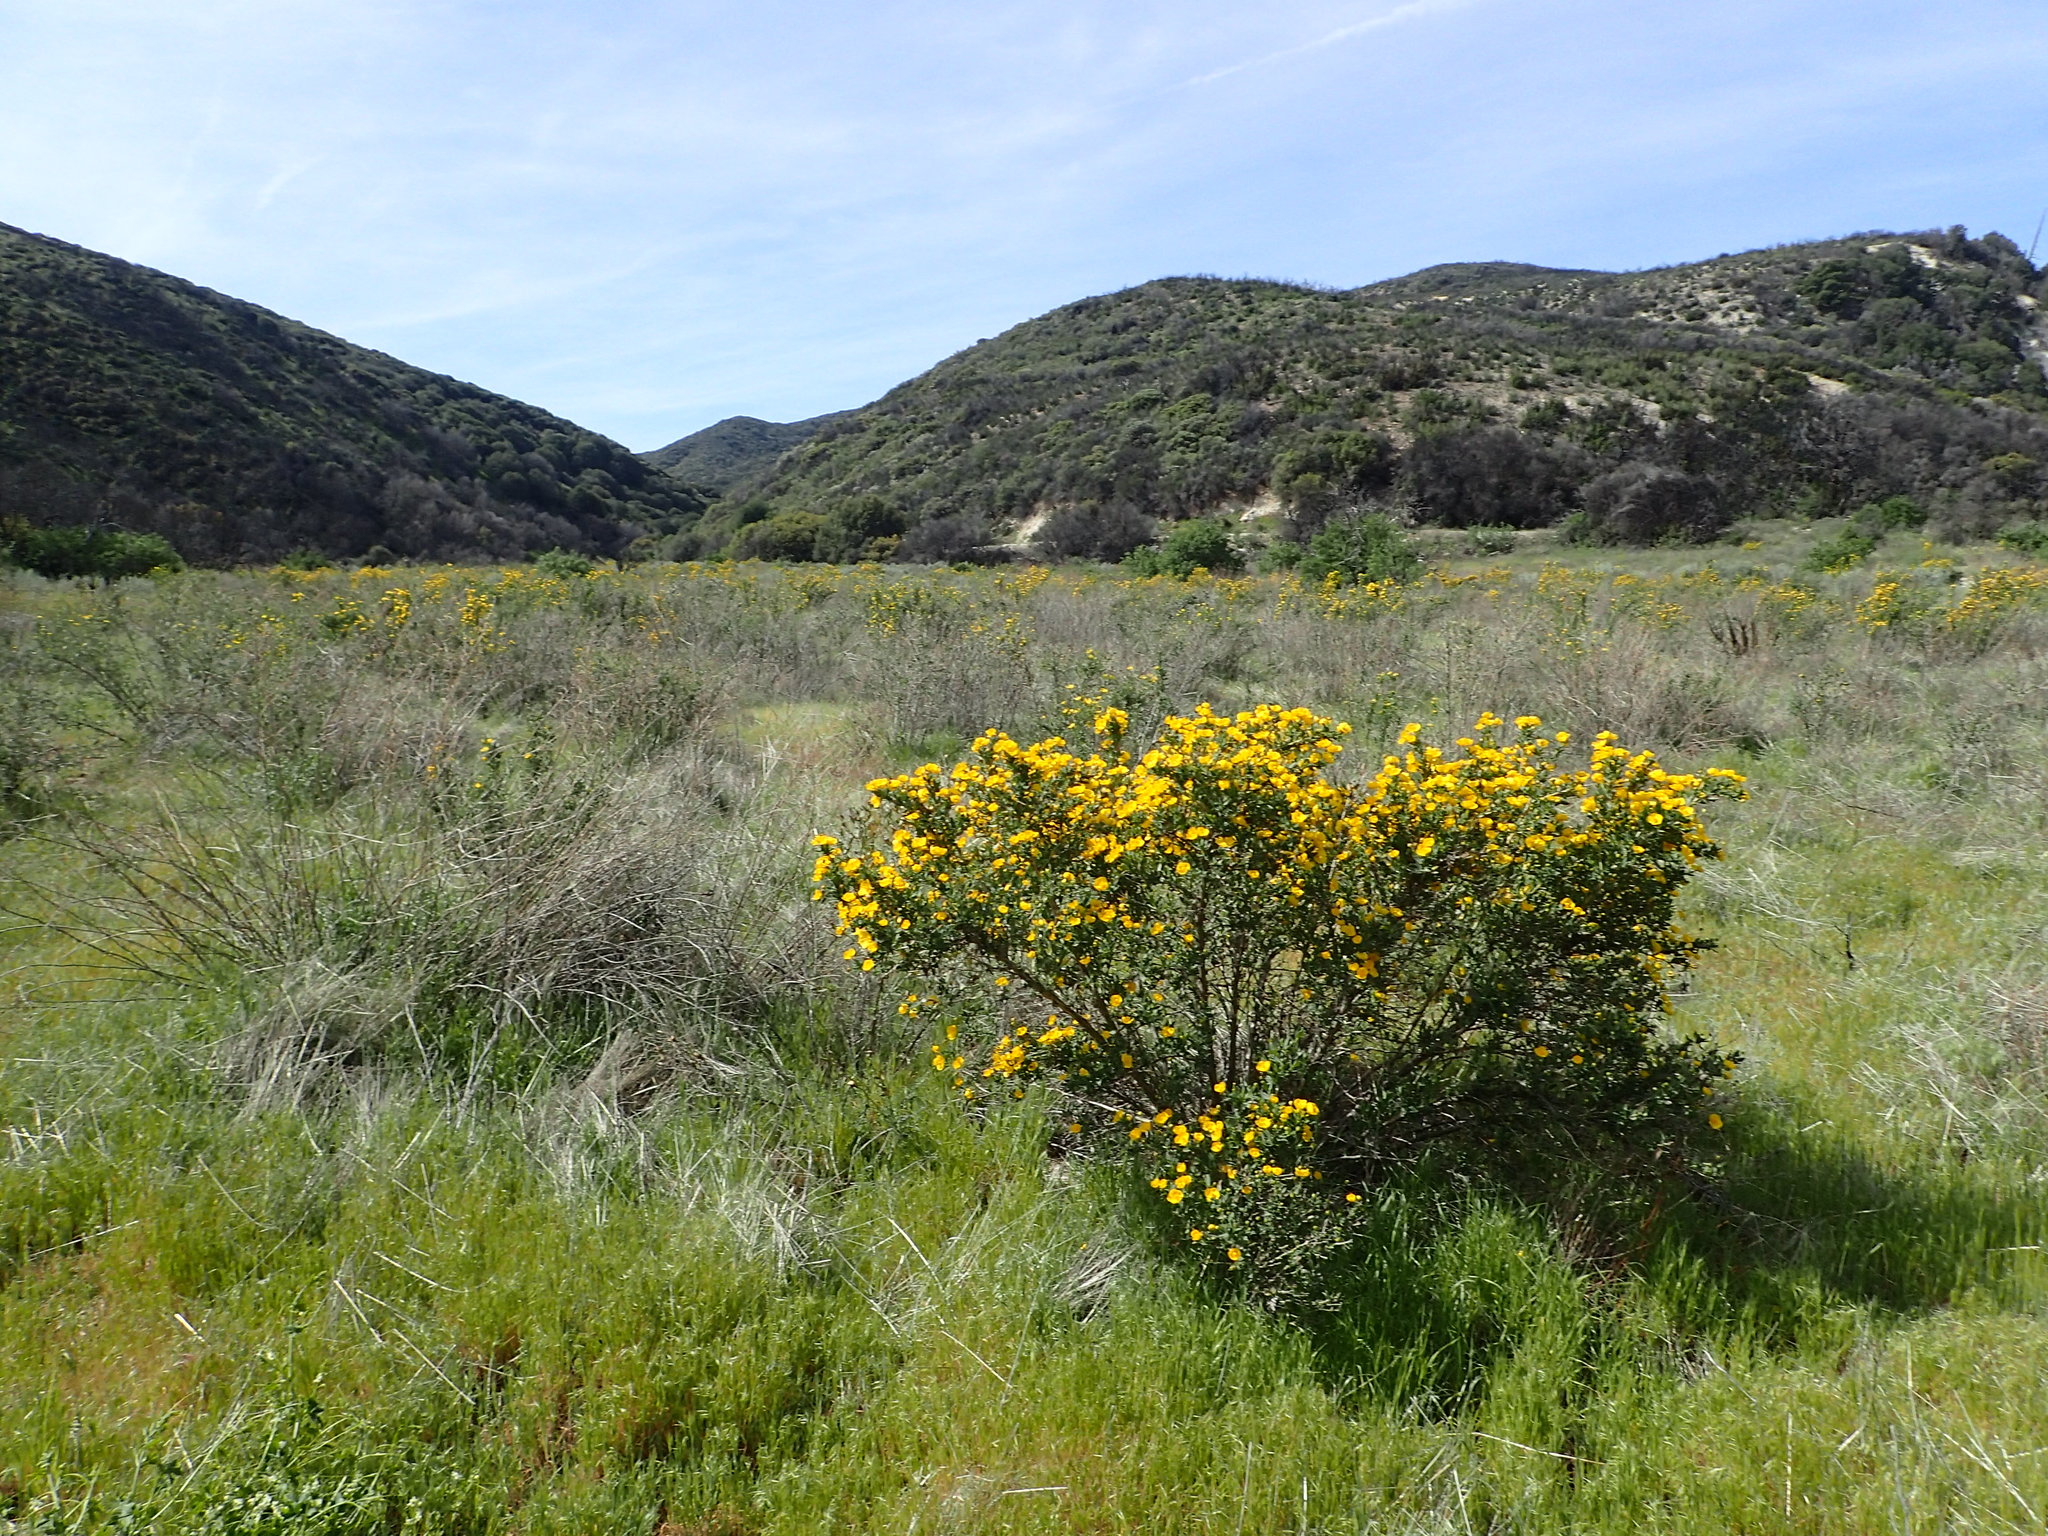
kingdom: Plantae
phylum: Tracheophyta
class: Magnoliopsida
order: Ranunculales
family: Papaveraceae
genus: Dendromecon
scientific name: Dendromecon rigida
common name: Tree poppy
